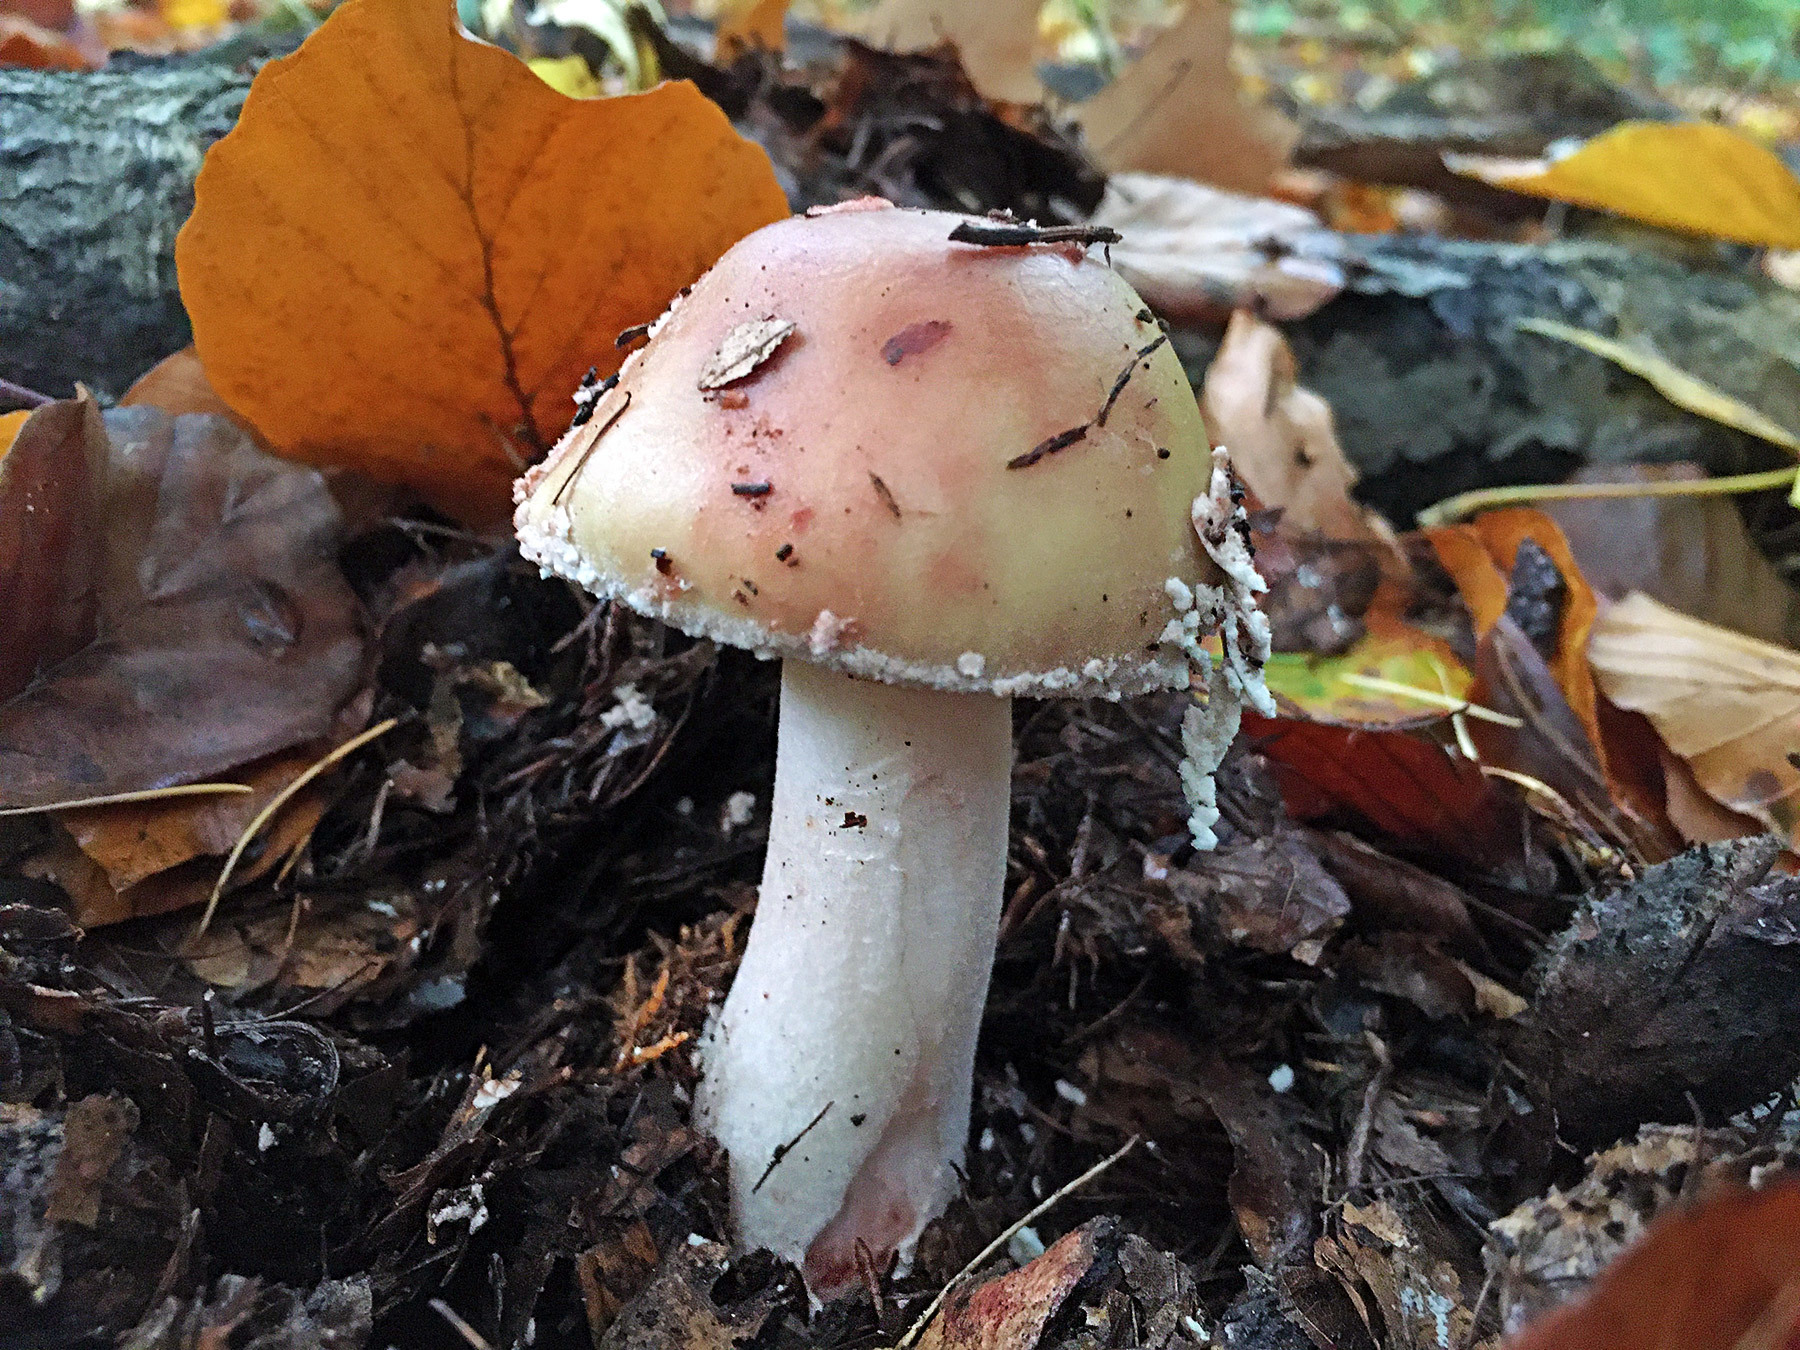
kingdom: Fungi
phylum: Basidiomycota
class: Agaricomycetes
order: Agaricales
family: Amanitaceae
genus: Amanita
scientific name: Amanita rubescens
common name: Blusher
